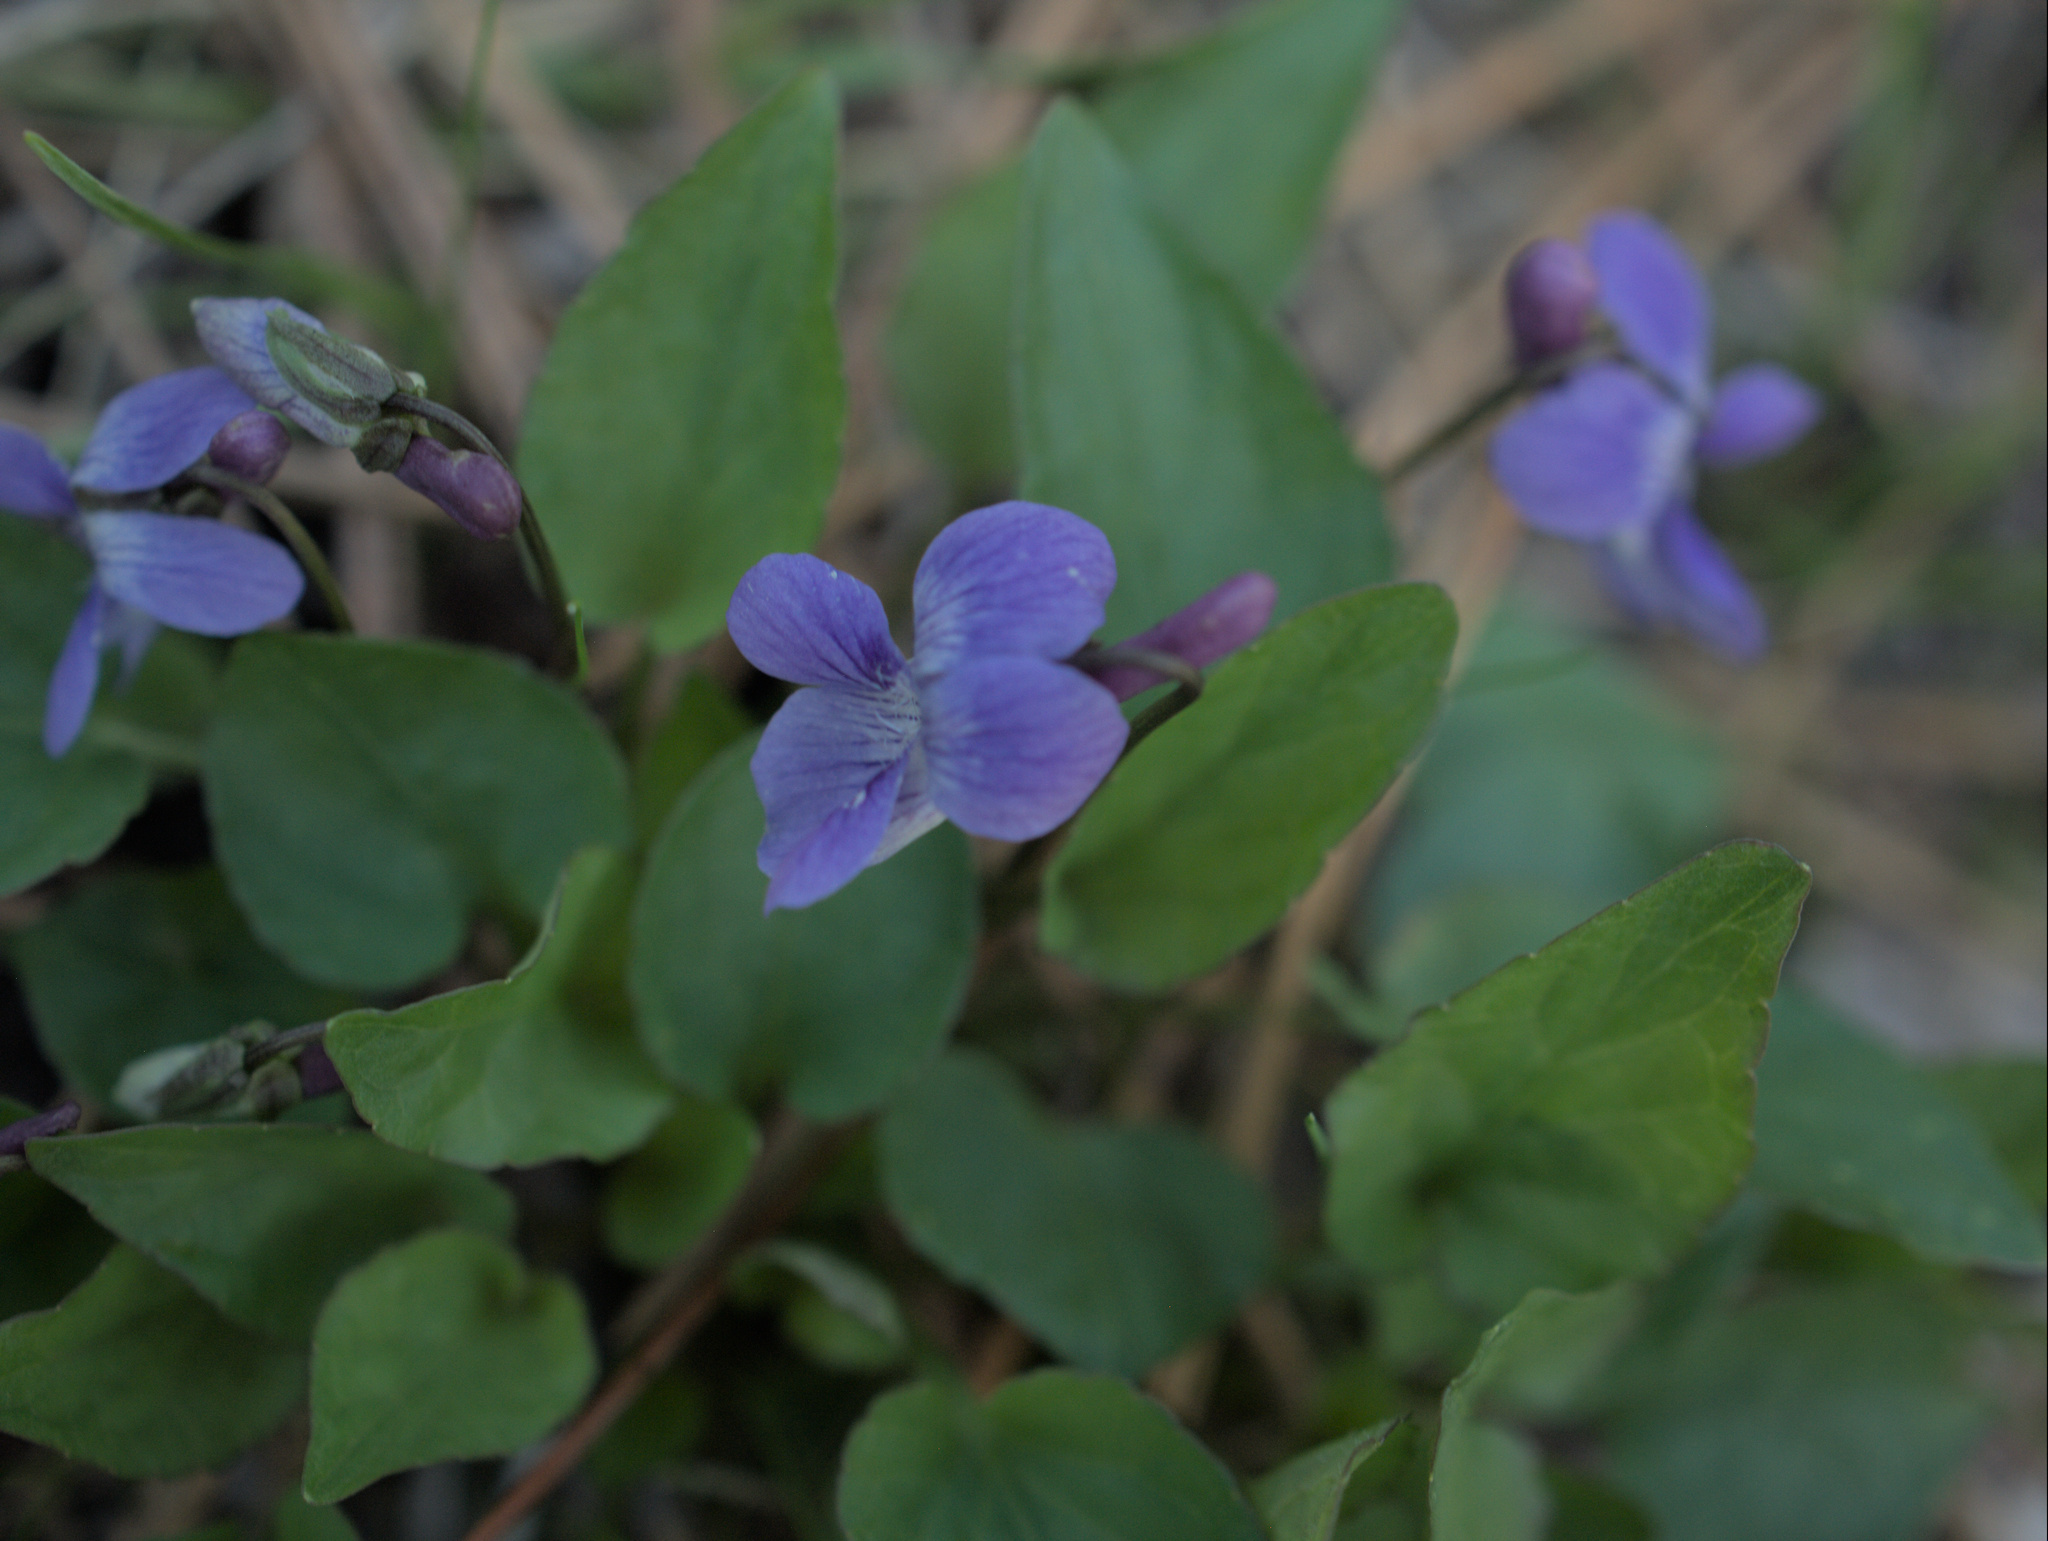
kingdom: Plantae
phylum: Tracheophyta
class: Magnoliopsida
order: Malpighiales
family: Violaceae
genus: Viola
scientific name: Viola adunca
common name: Sand violet
